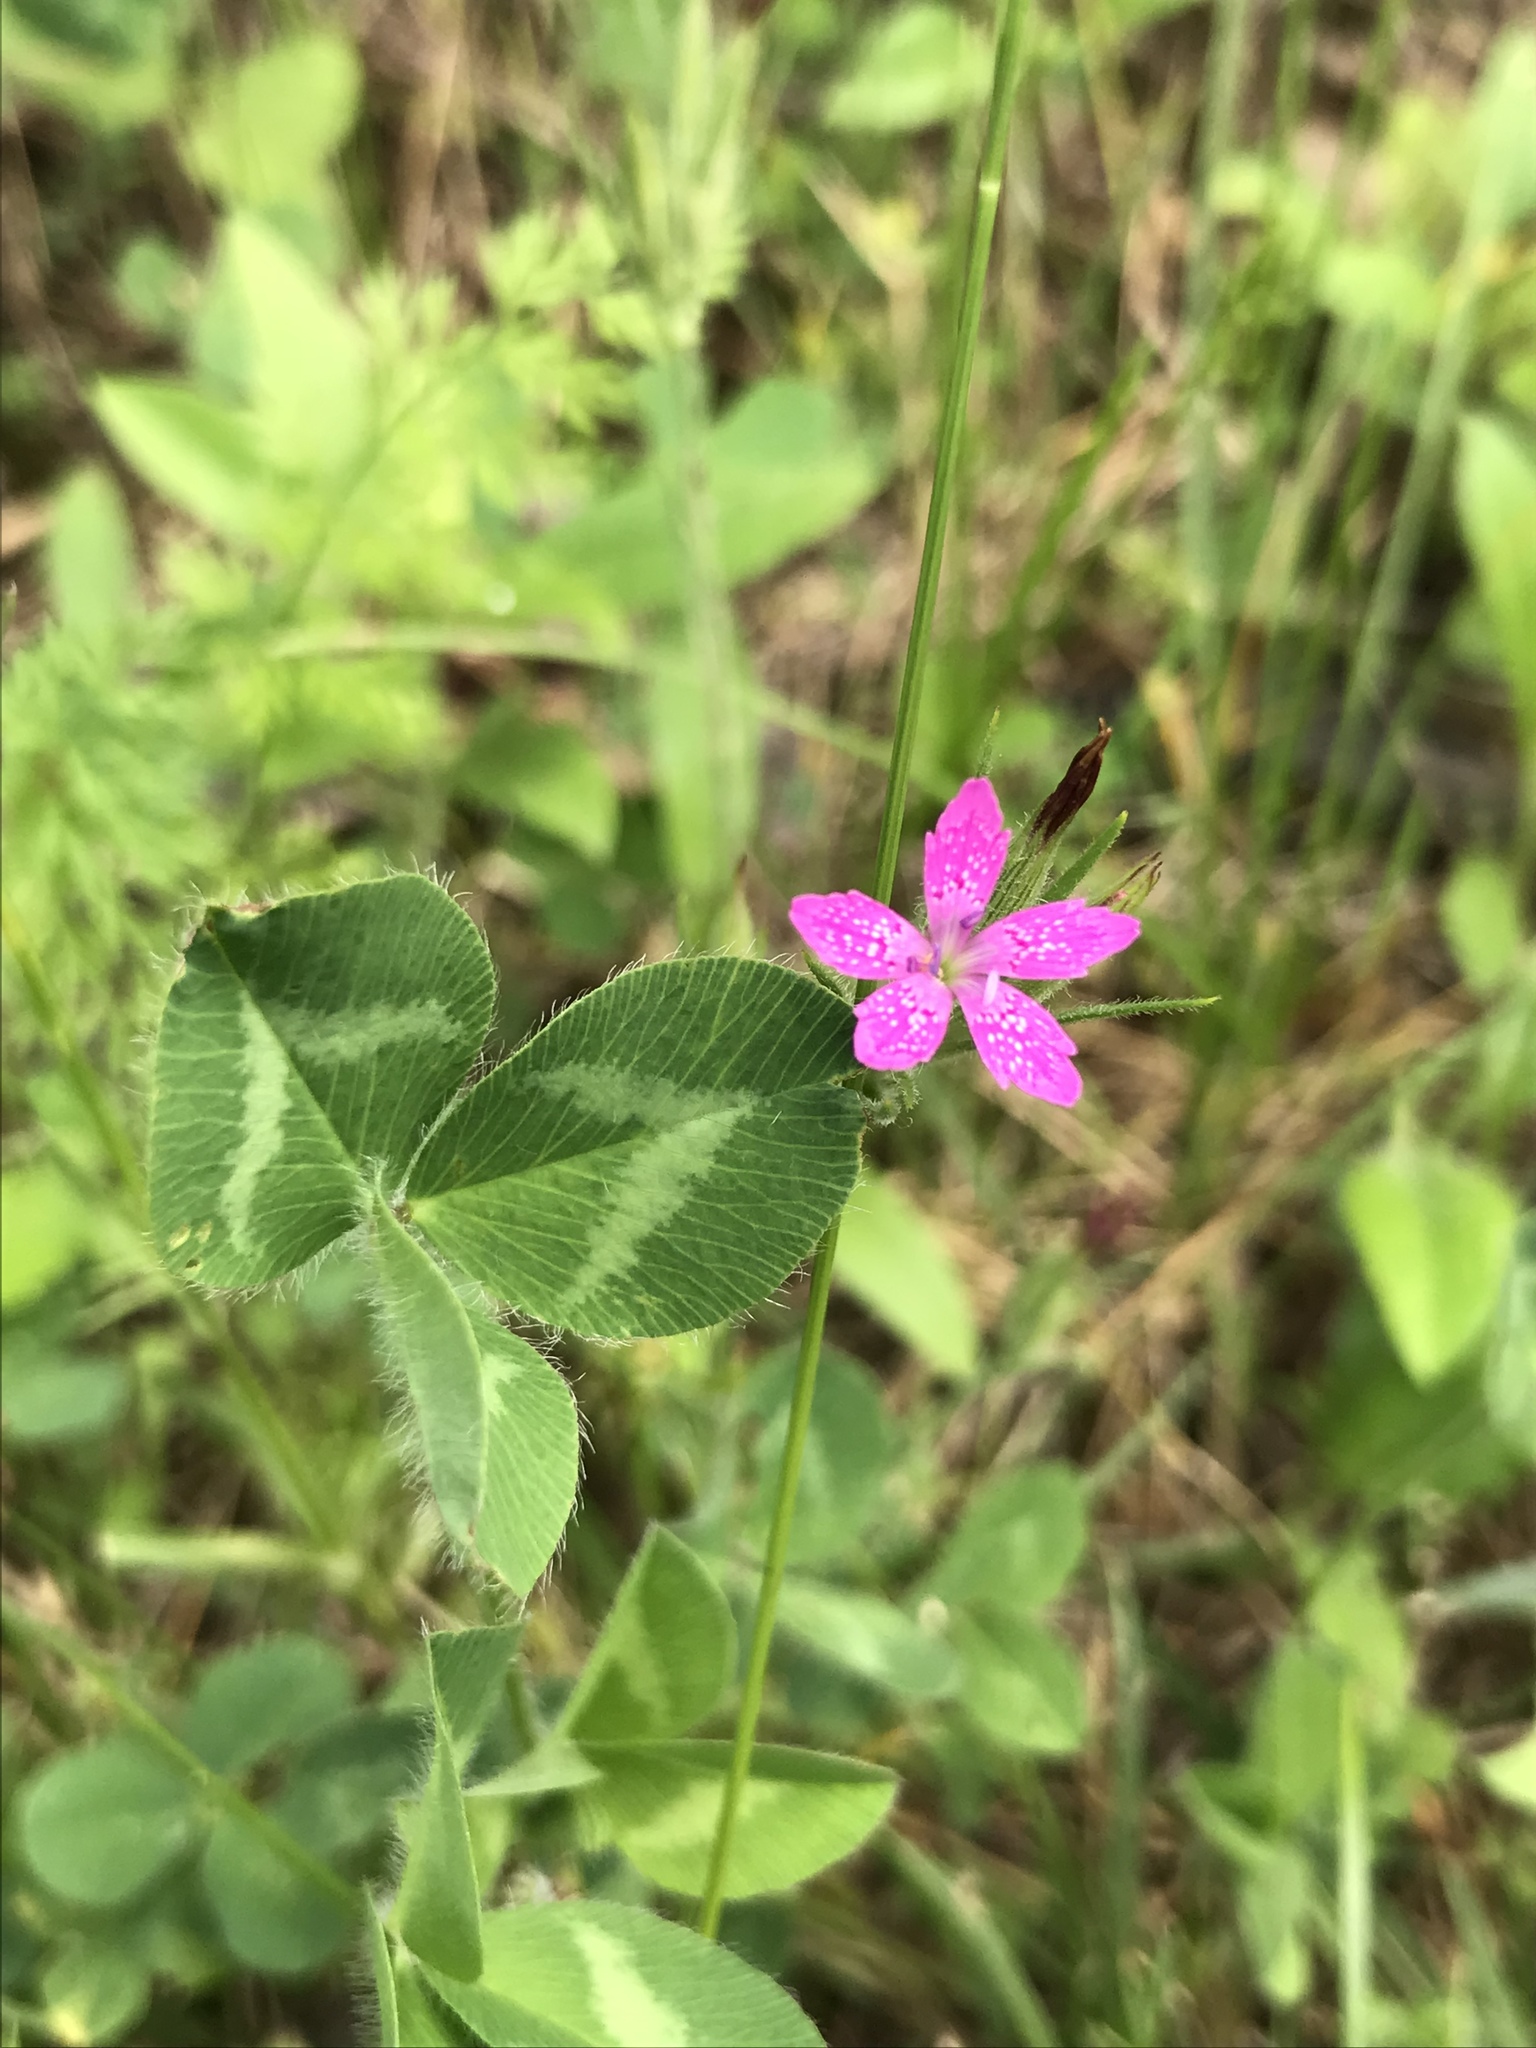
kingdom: Plantae
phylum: Tracheophyta
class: Magnoliopsida
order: Caryophyllales
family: Caryophyllaceae
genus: Dianthus
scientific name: Dianthus armeria
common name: Deptford pink
